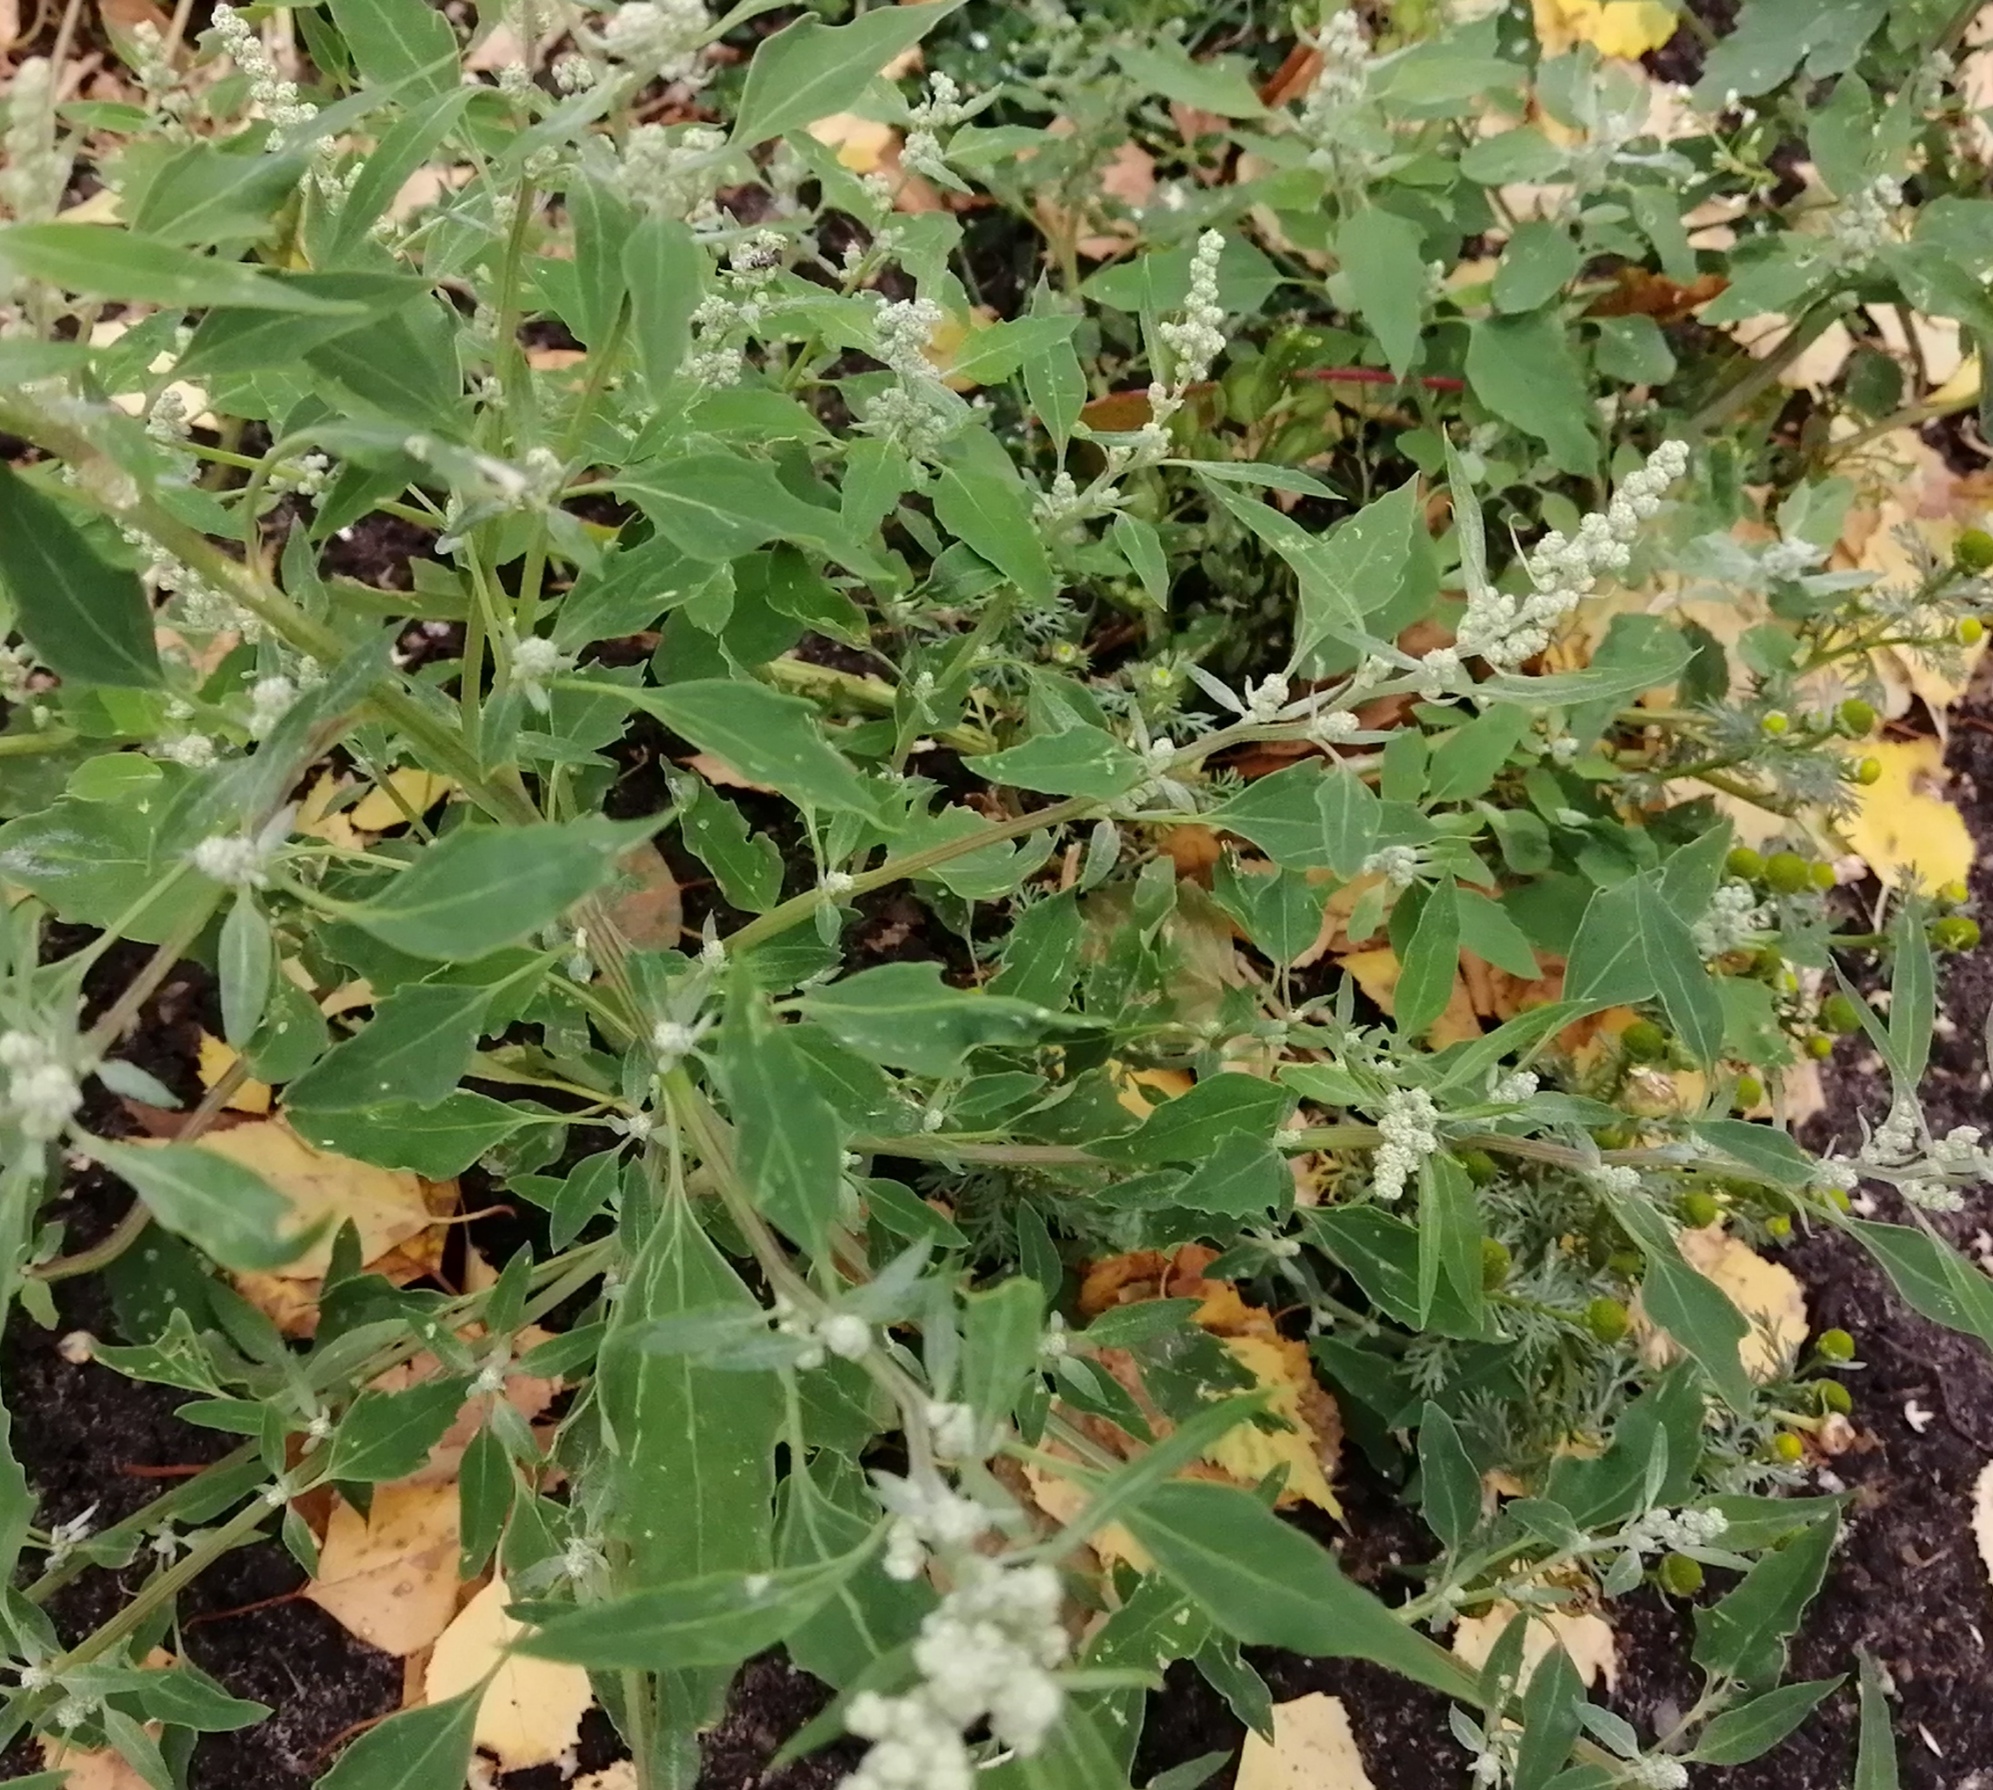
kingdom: Plantae
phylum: Tracheophyta
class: Magnoliopsida
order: Caryophyllales
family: Amaranthaceae
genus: Chenopodium
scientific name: Chenopodium album
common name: Fat-hen
